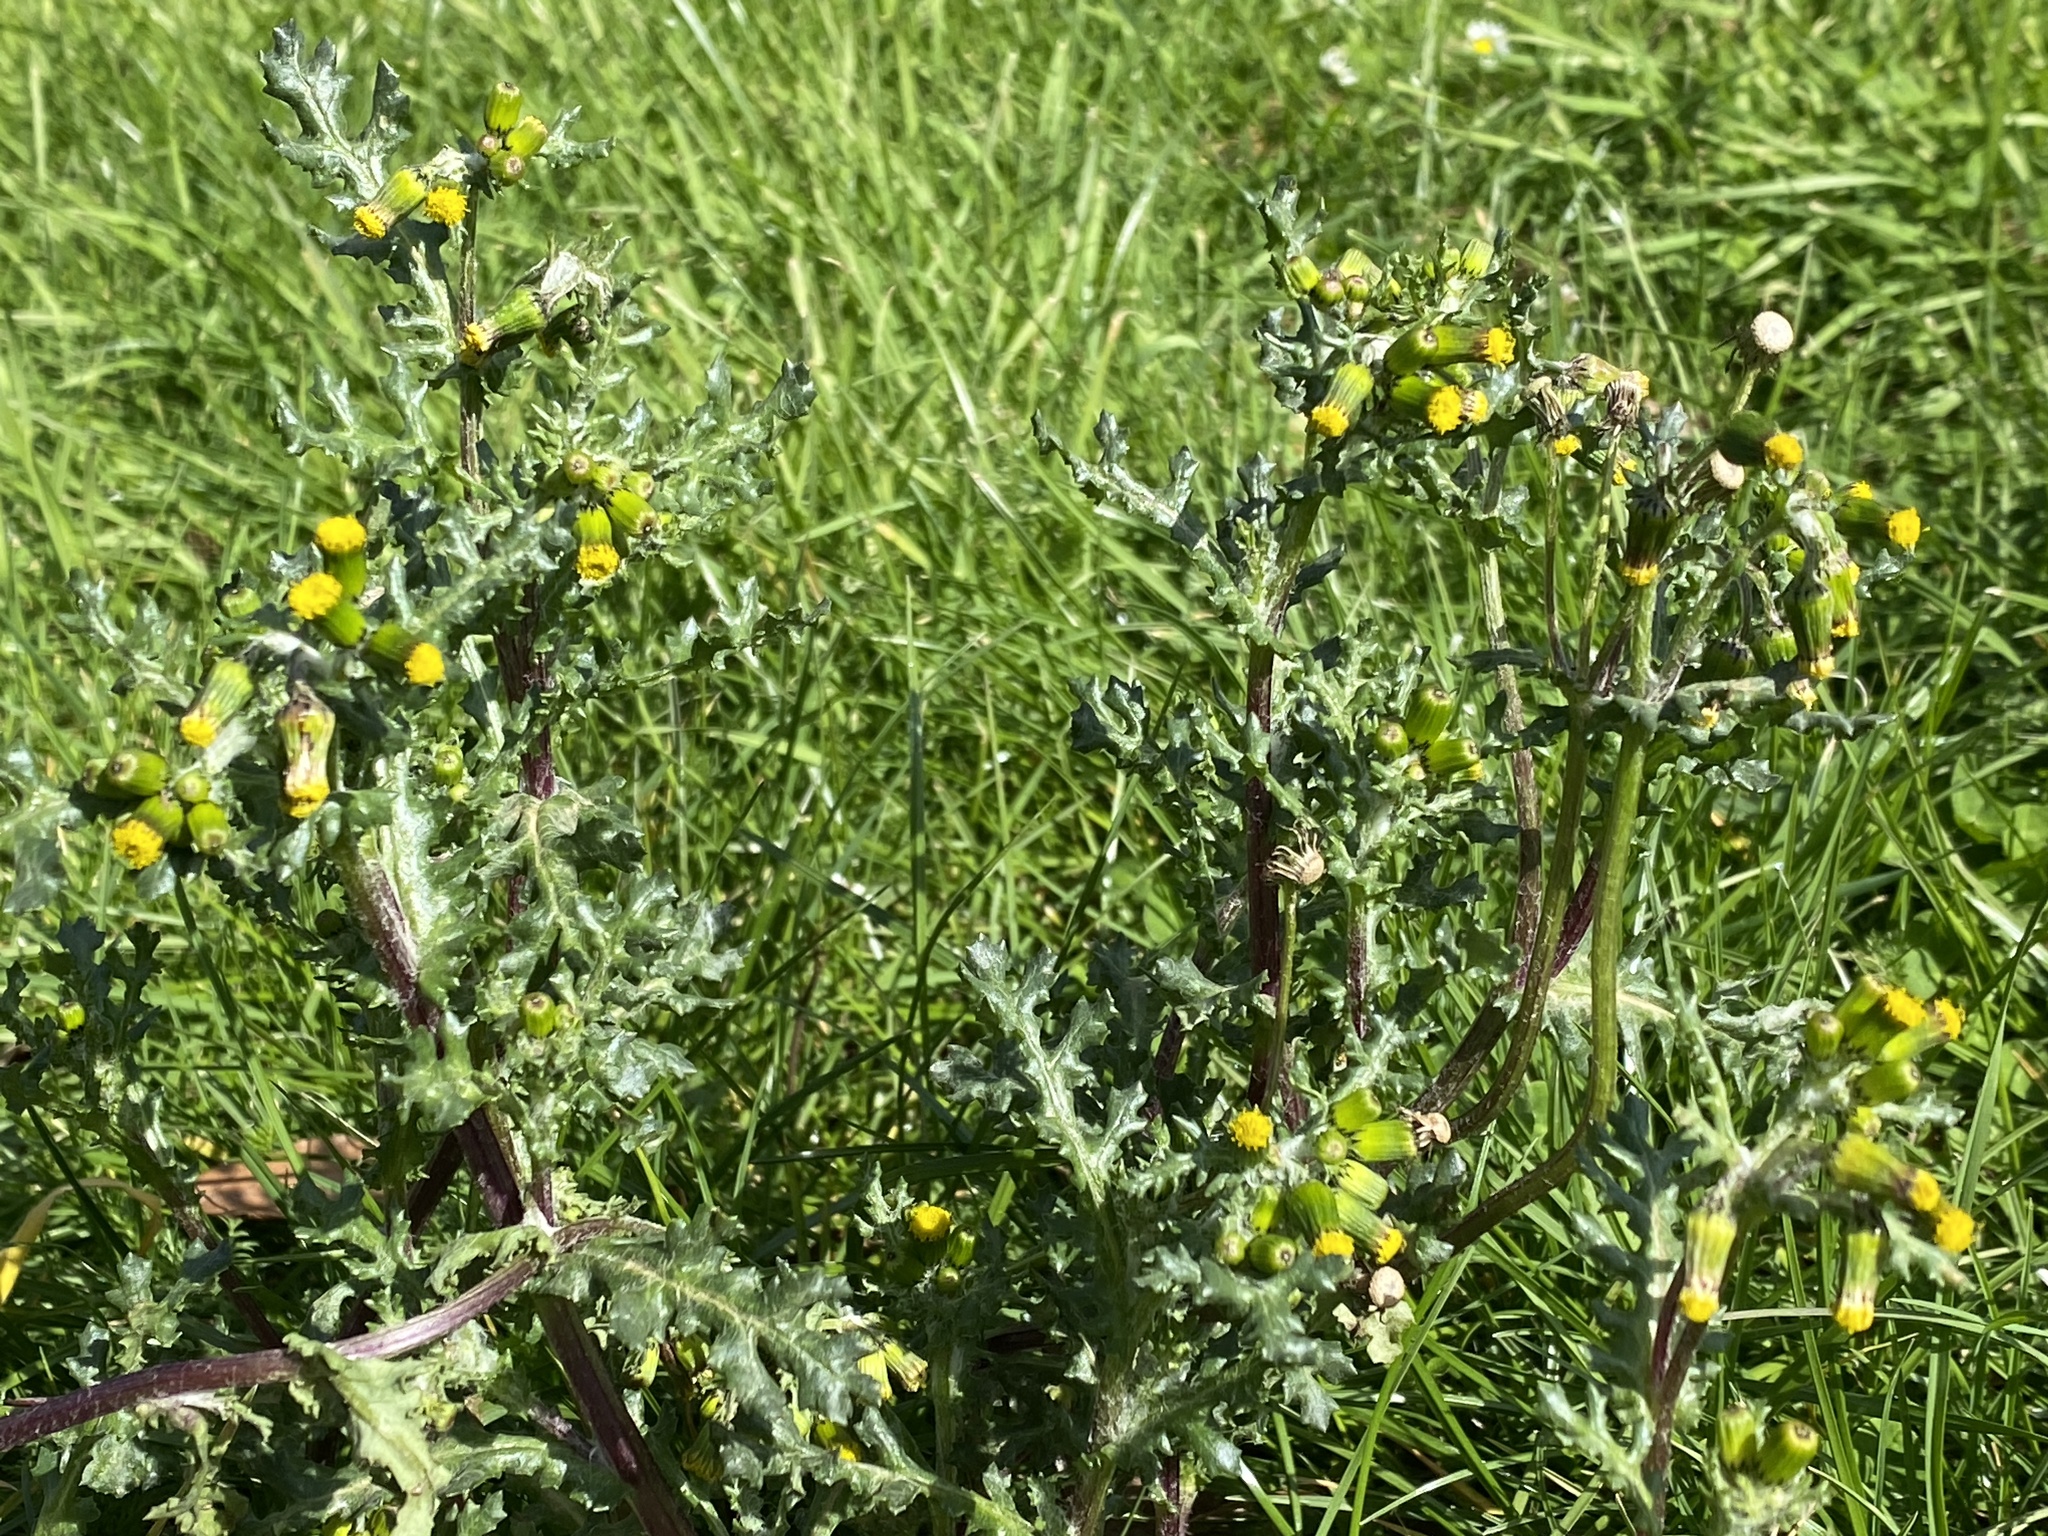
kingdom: Plantae
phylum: Tracheophyta
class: Magnoliopsida
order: Asterales
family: Asteraceae
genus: Senecio
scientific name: Senecio vulgaris
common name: Old-man-in-the-spring
